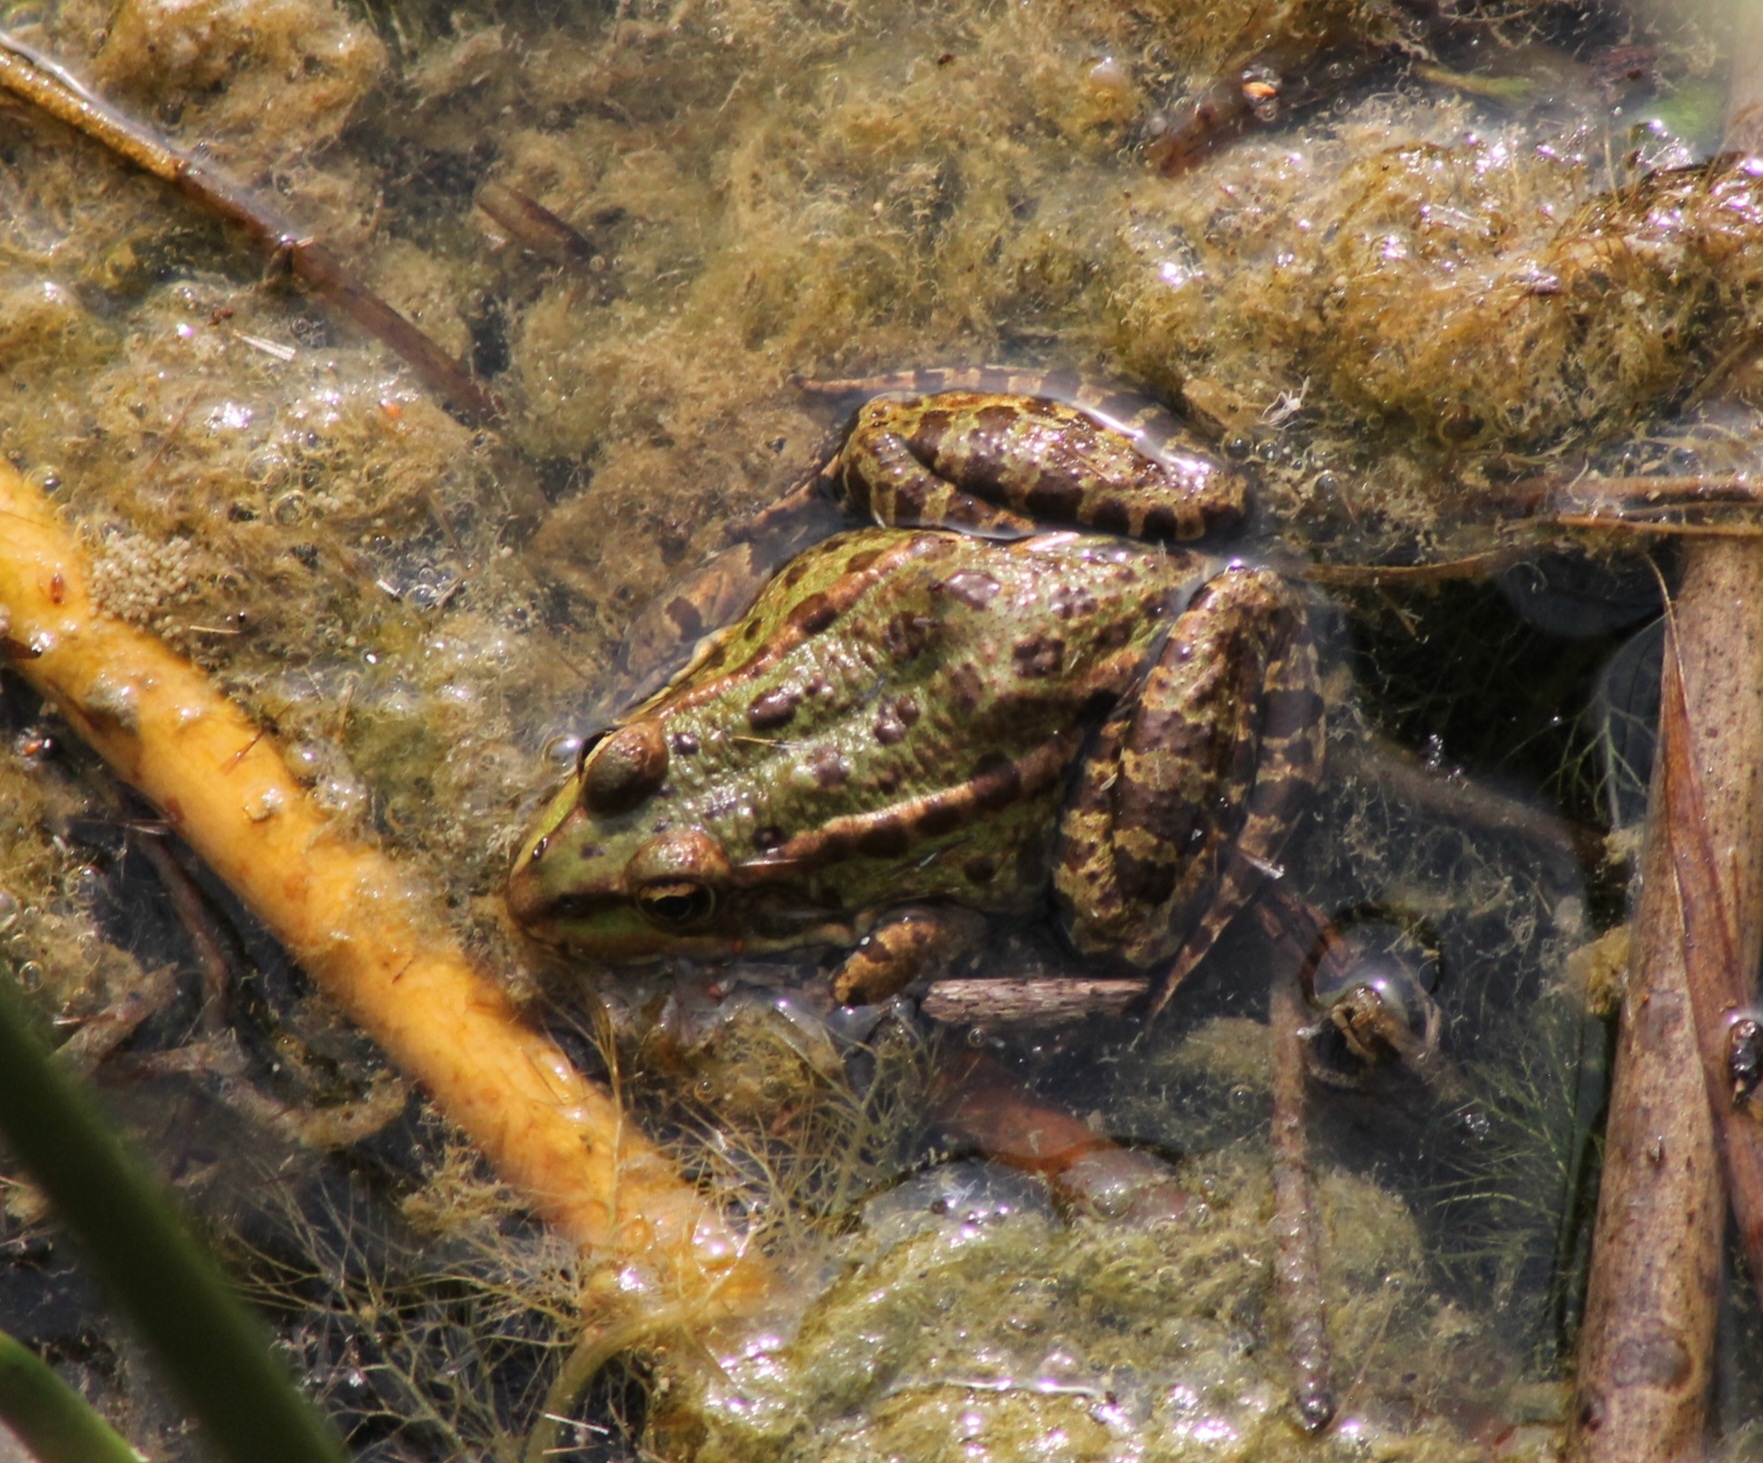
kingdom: Animalia
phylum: Chordata
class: Amphibia
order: Anura
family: Ranidae
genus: Pelophylax
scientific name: Pelophylax
